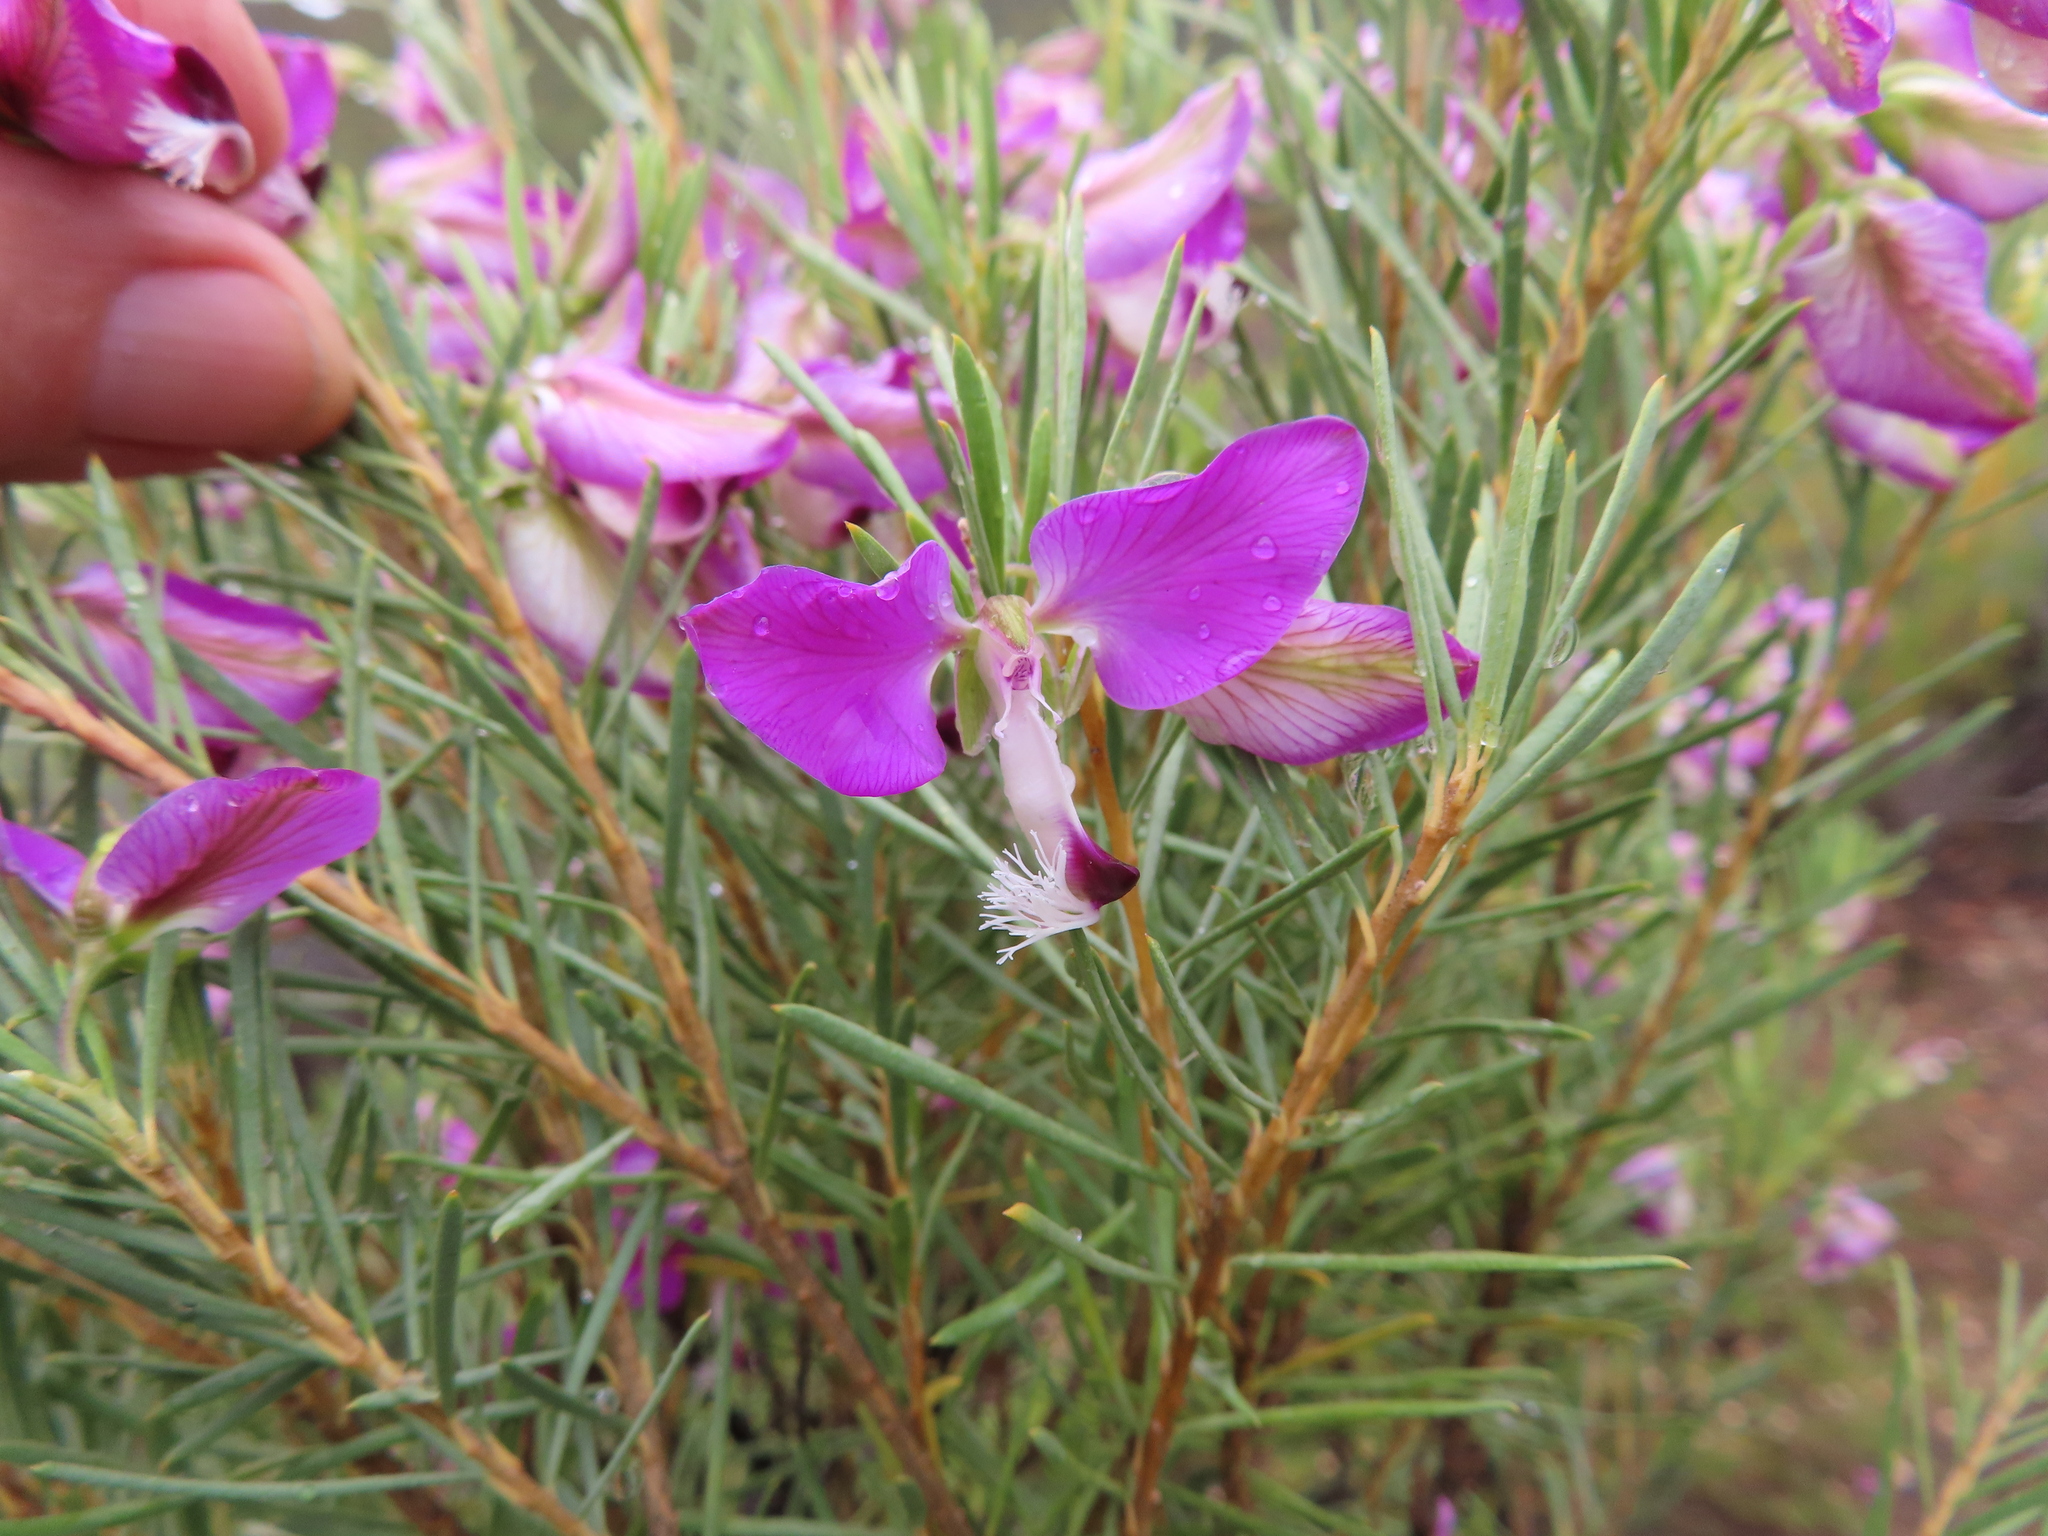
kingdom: Plantae
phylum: Tracheophyta
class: Magnoliopsida
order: Fabales
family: Polygalaceae
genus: Polygala
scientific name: Polygala myrtifolia
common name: Myrtle-leaf milkwort
